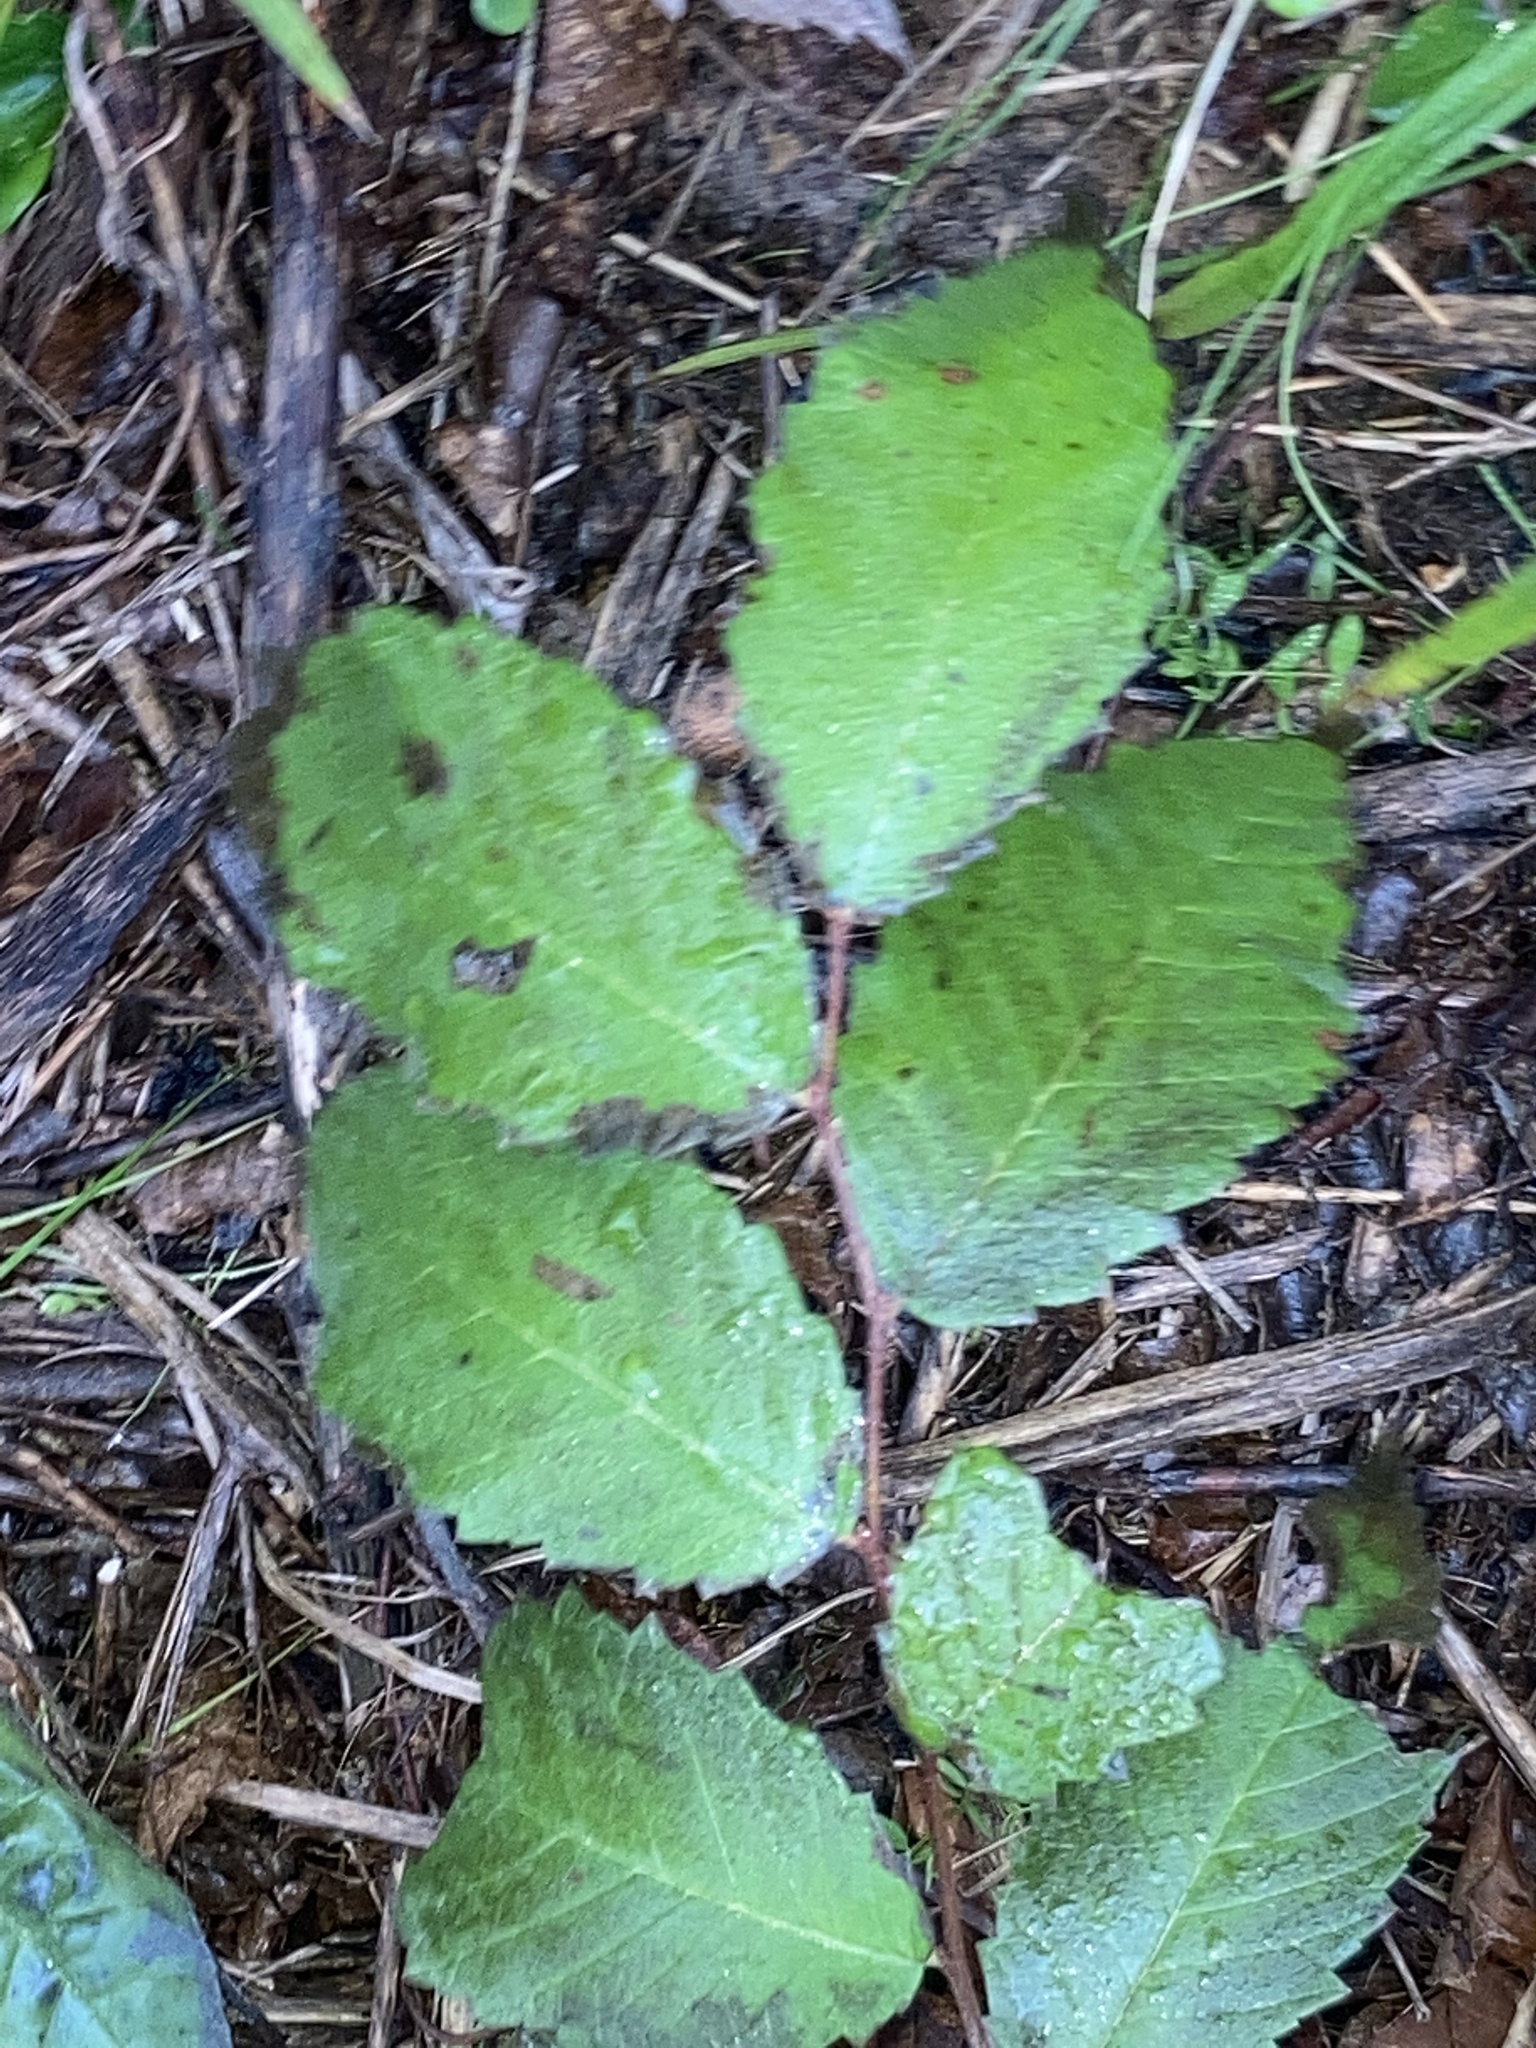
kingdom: Plantae
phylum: Tracheophyta
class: Magnoliopsida
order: Rosales
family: Ulmaceae
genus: Ulmus
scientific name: Ulmus crassifolia
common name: Basket elm
